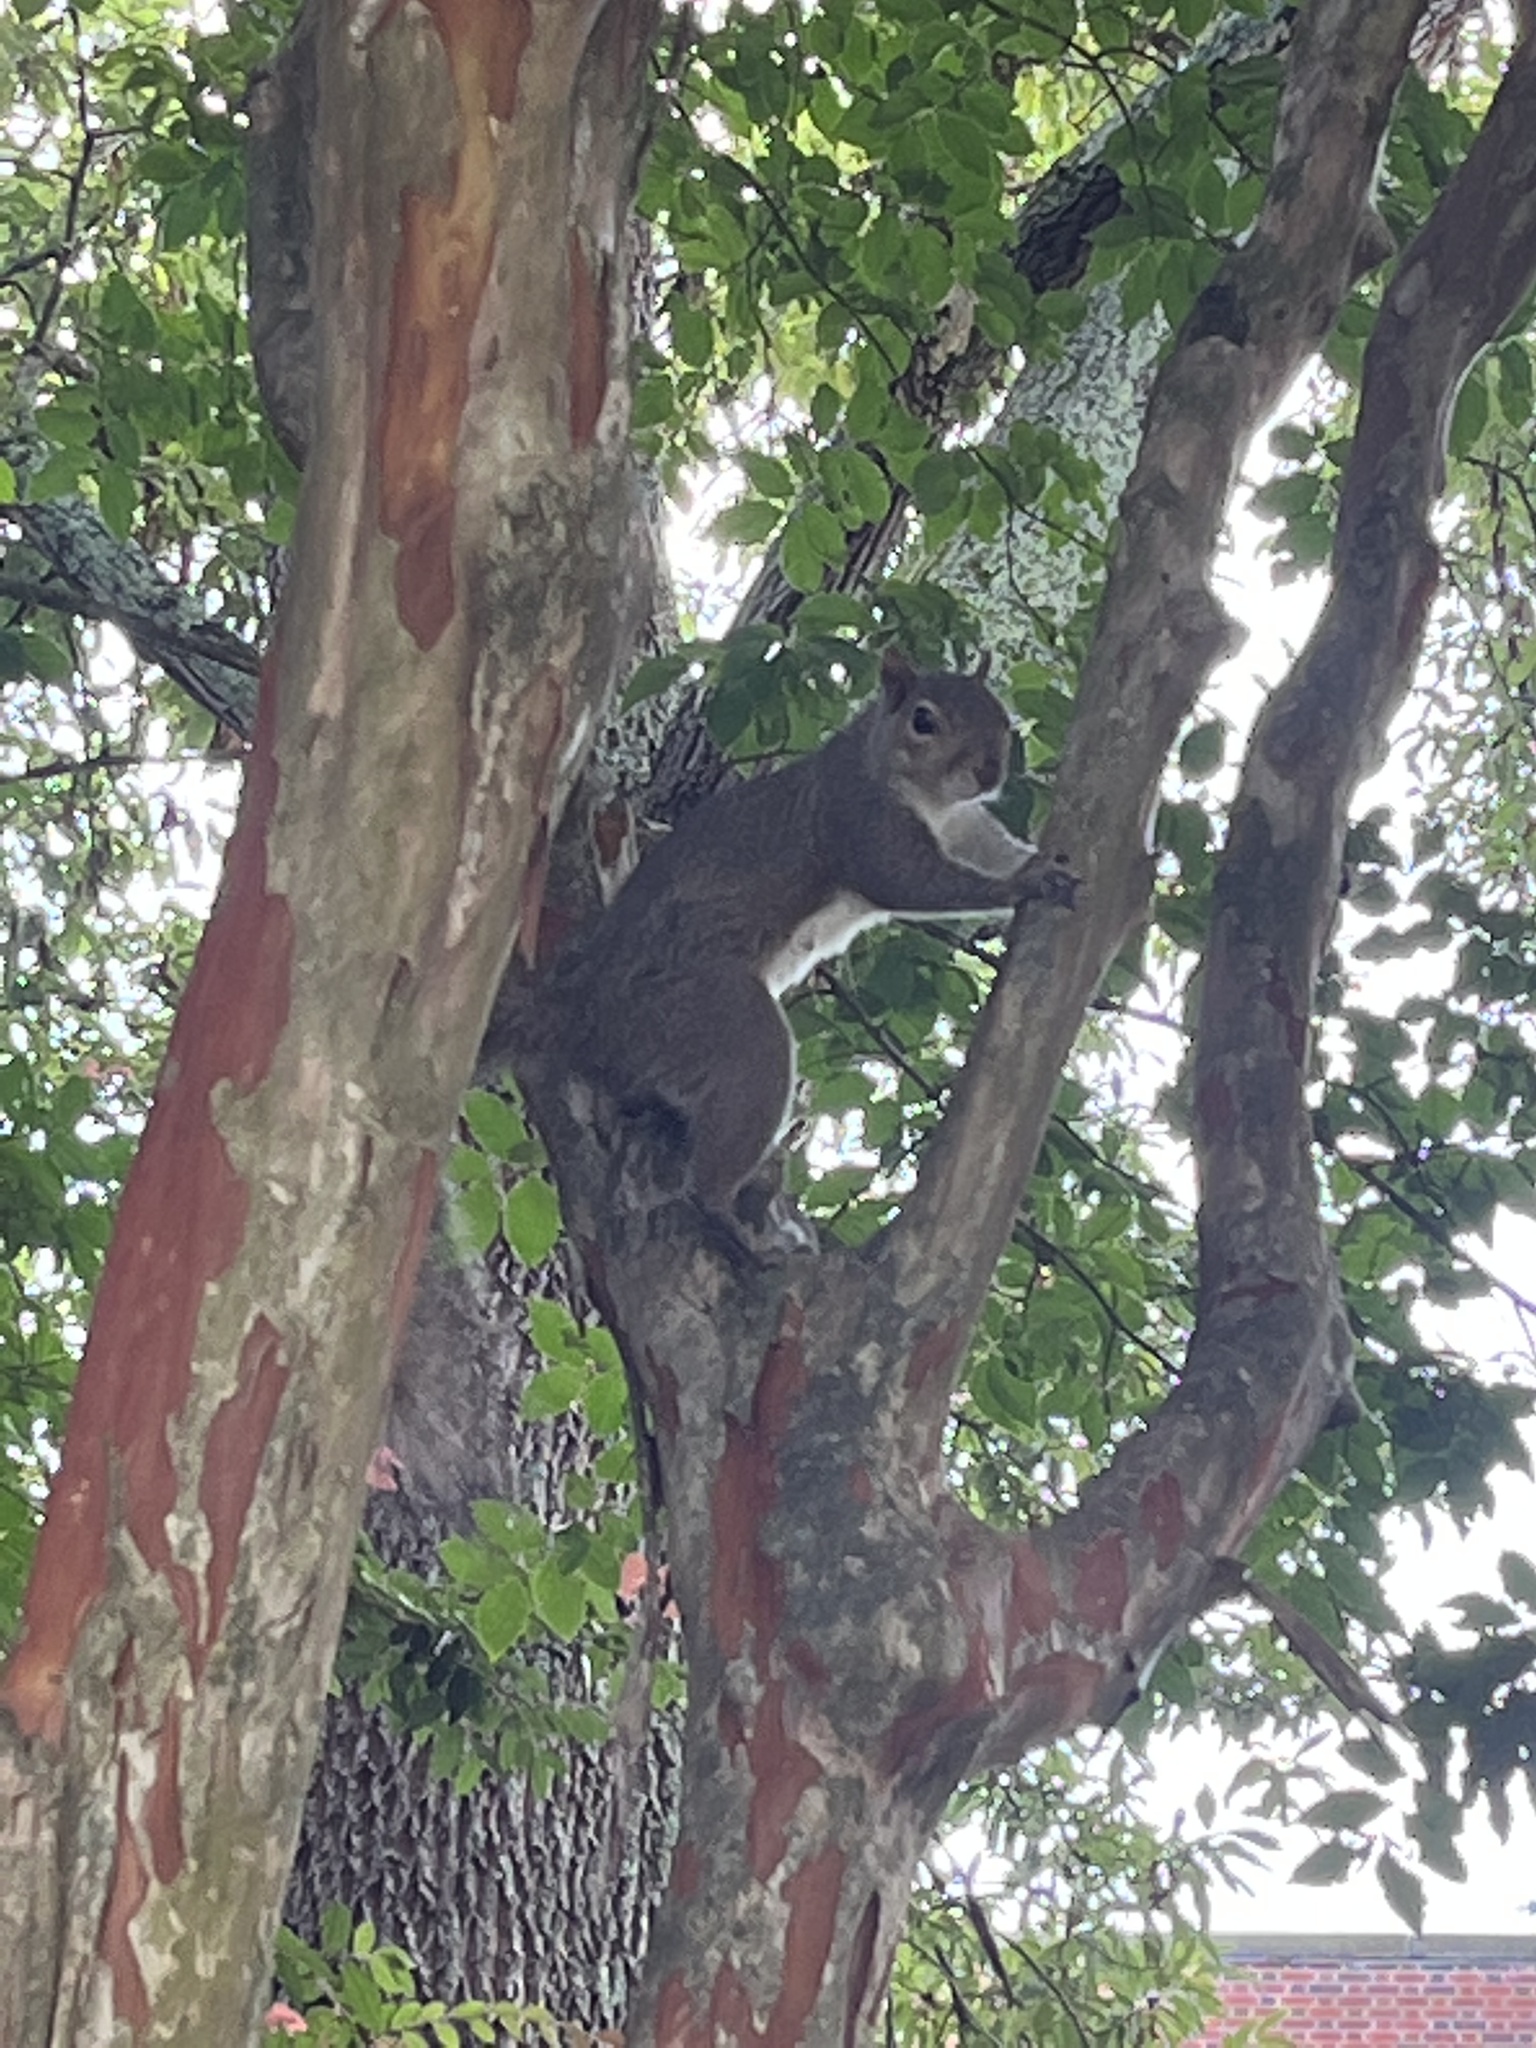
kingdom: Animalia
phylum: Chordata
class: Mammalia
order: Rodentia
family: Sciuridae
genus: Sciurus
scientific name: Sciurus carolinensis
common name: Eastern gray squirrel
